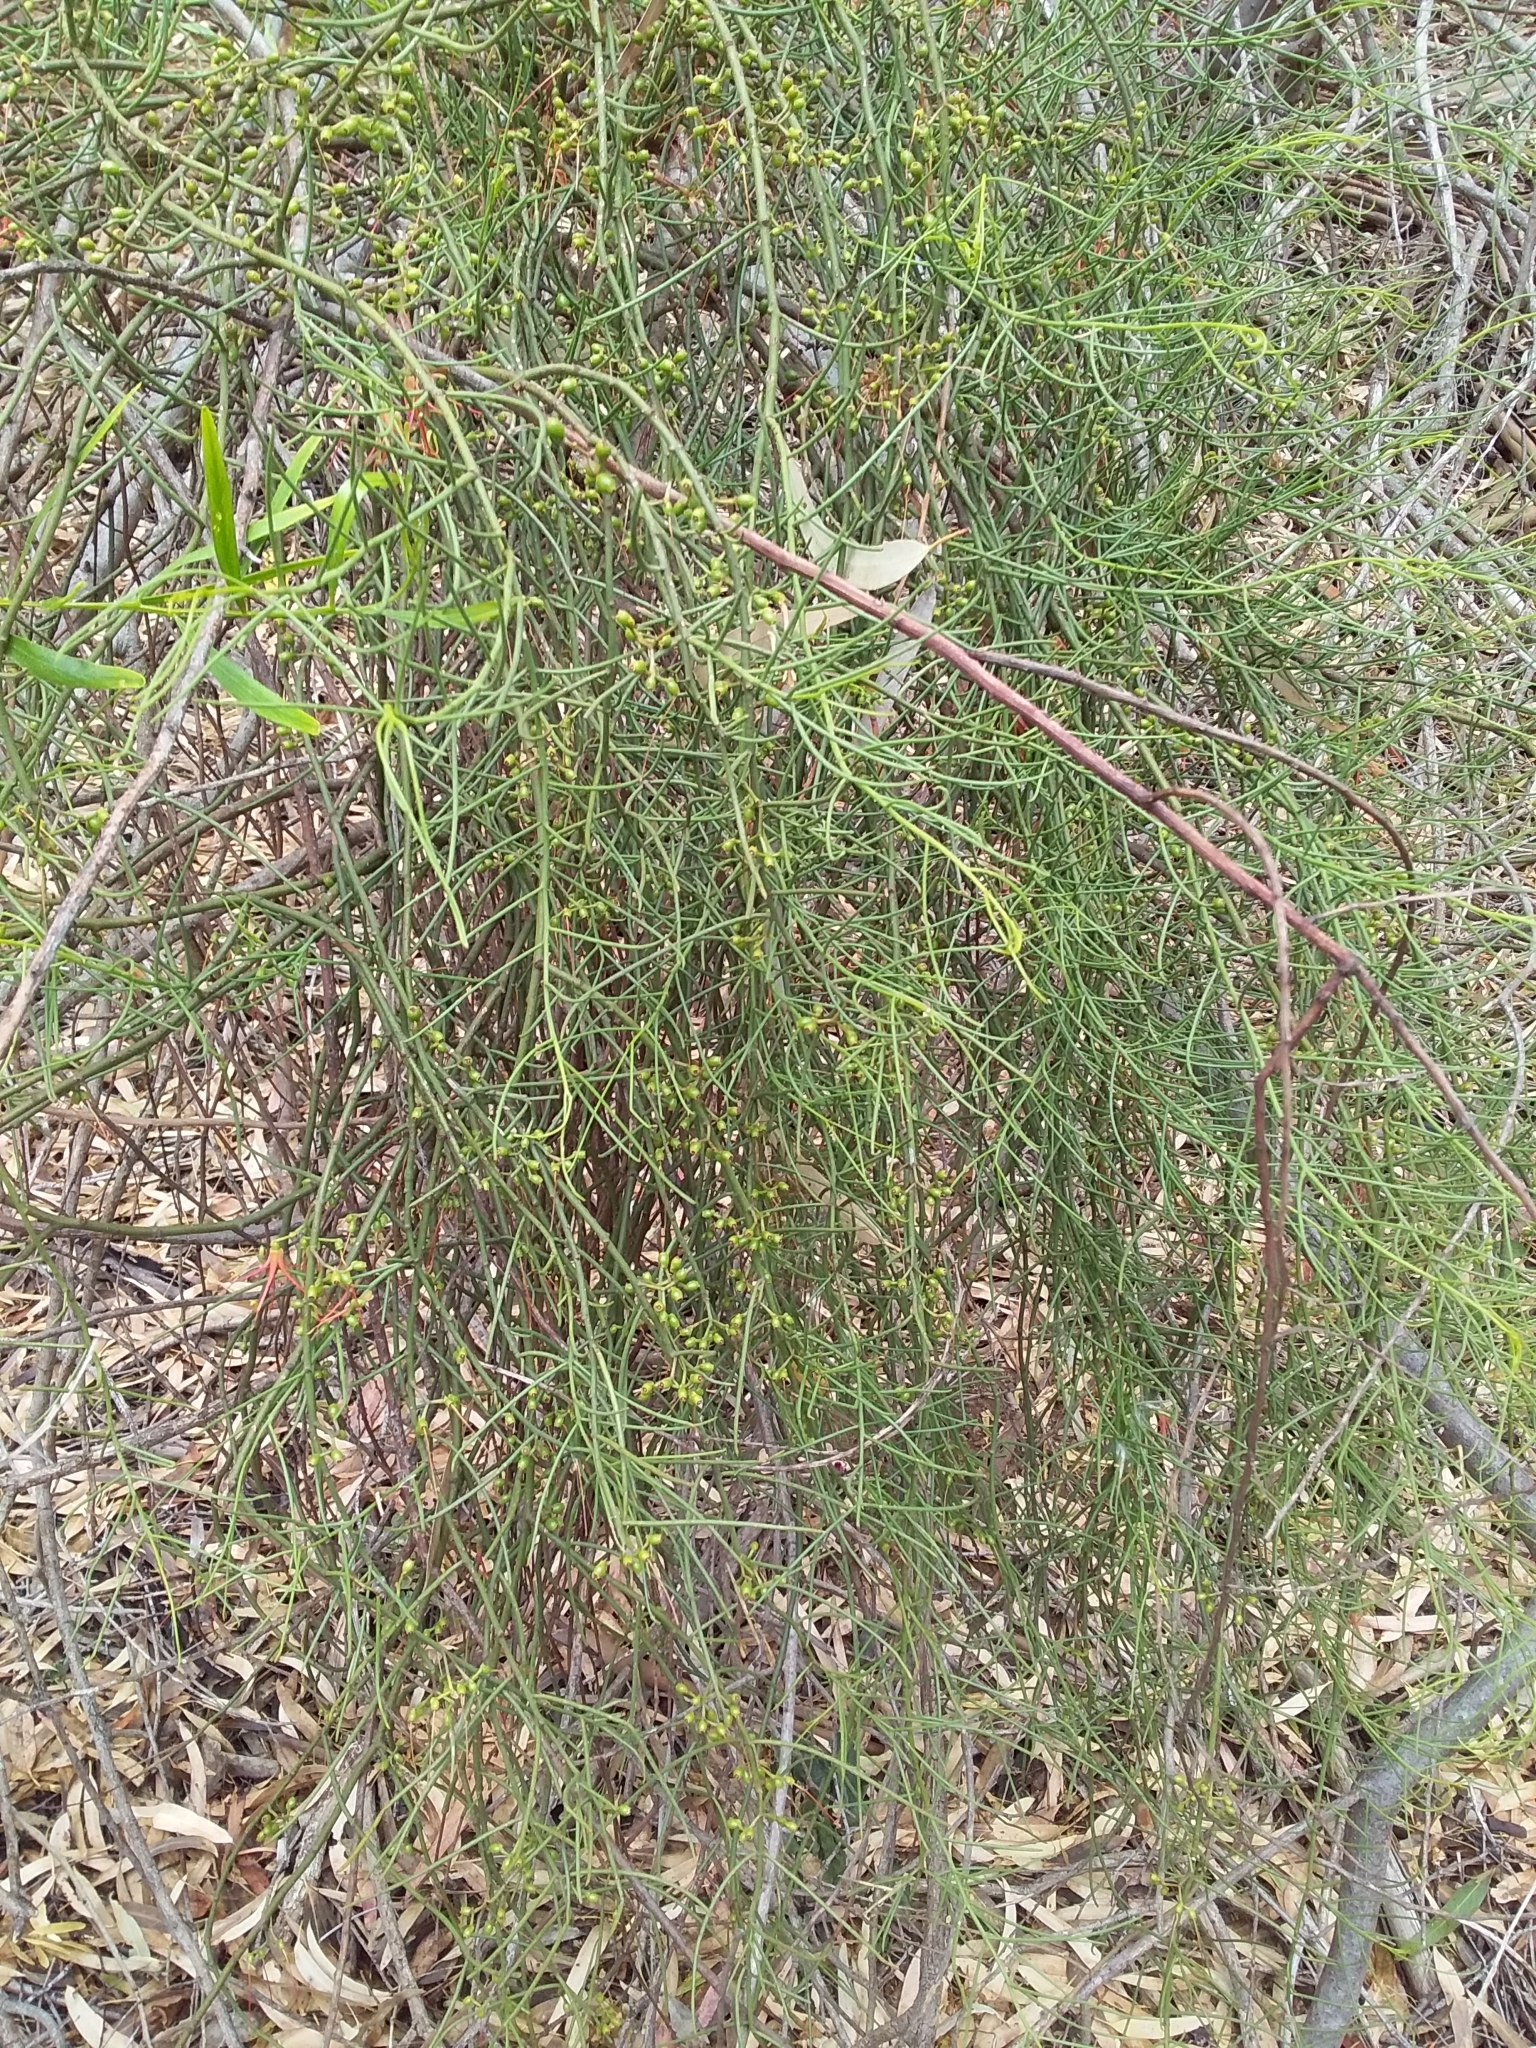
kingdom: Plantae
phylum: Tracheophyta
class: Magnoliopsida
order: Santalales
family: Loranthaceae
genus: Amyema
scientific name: Amyema preissii
